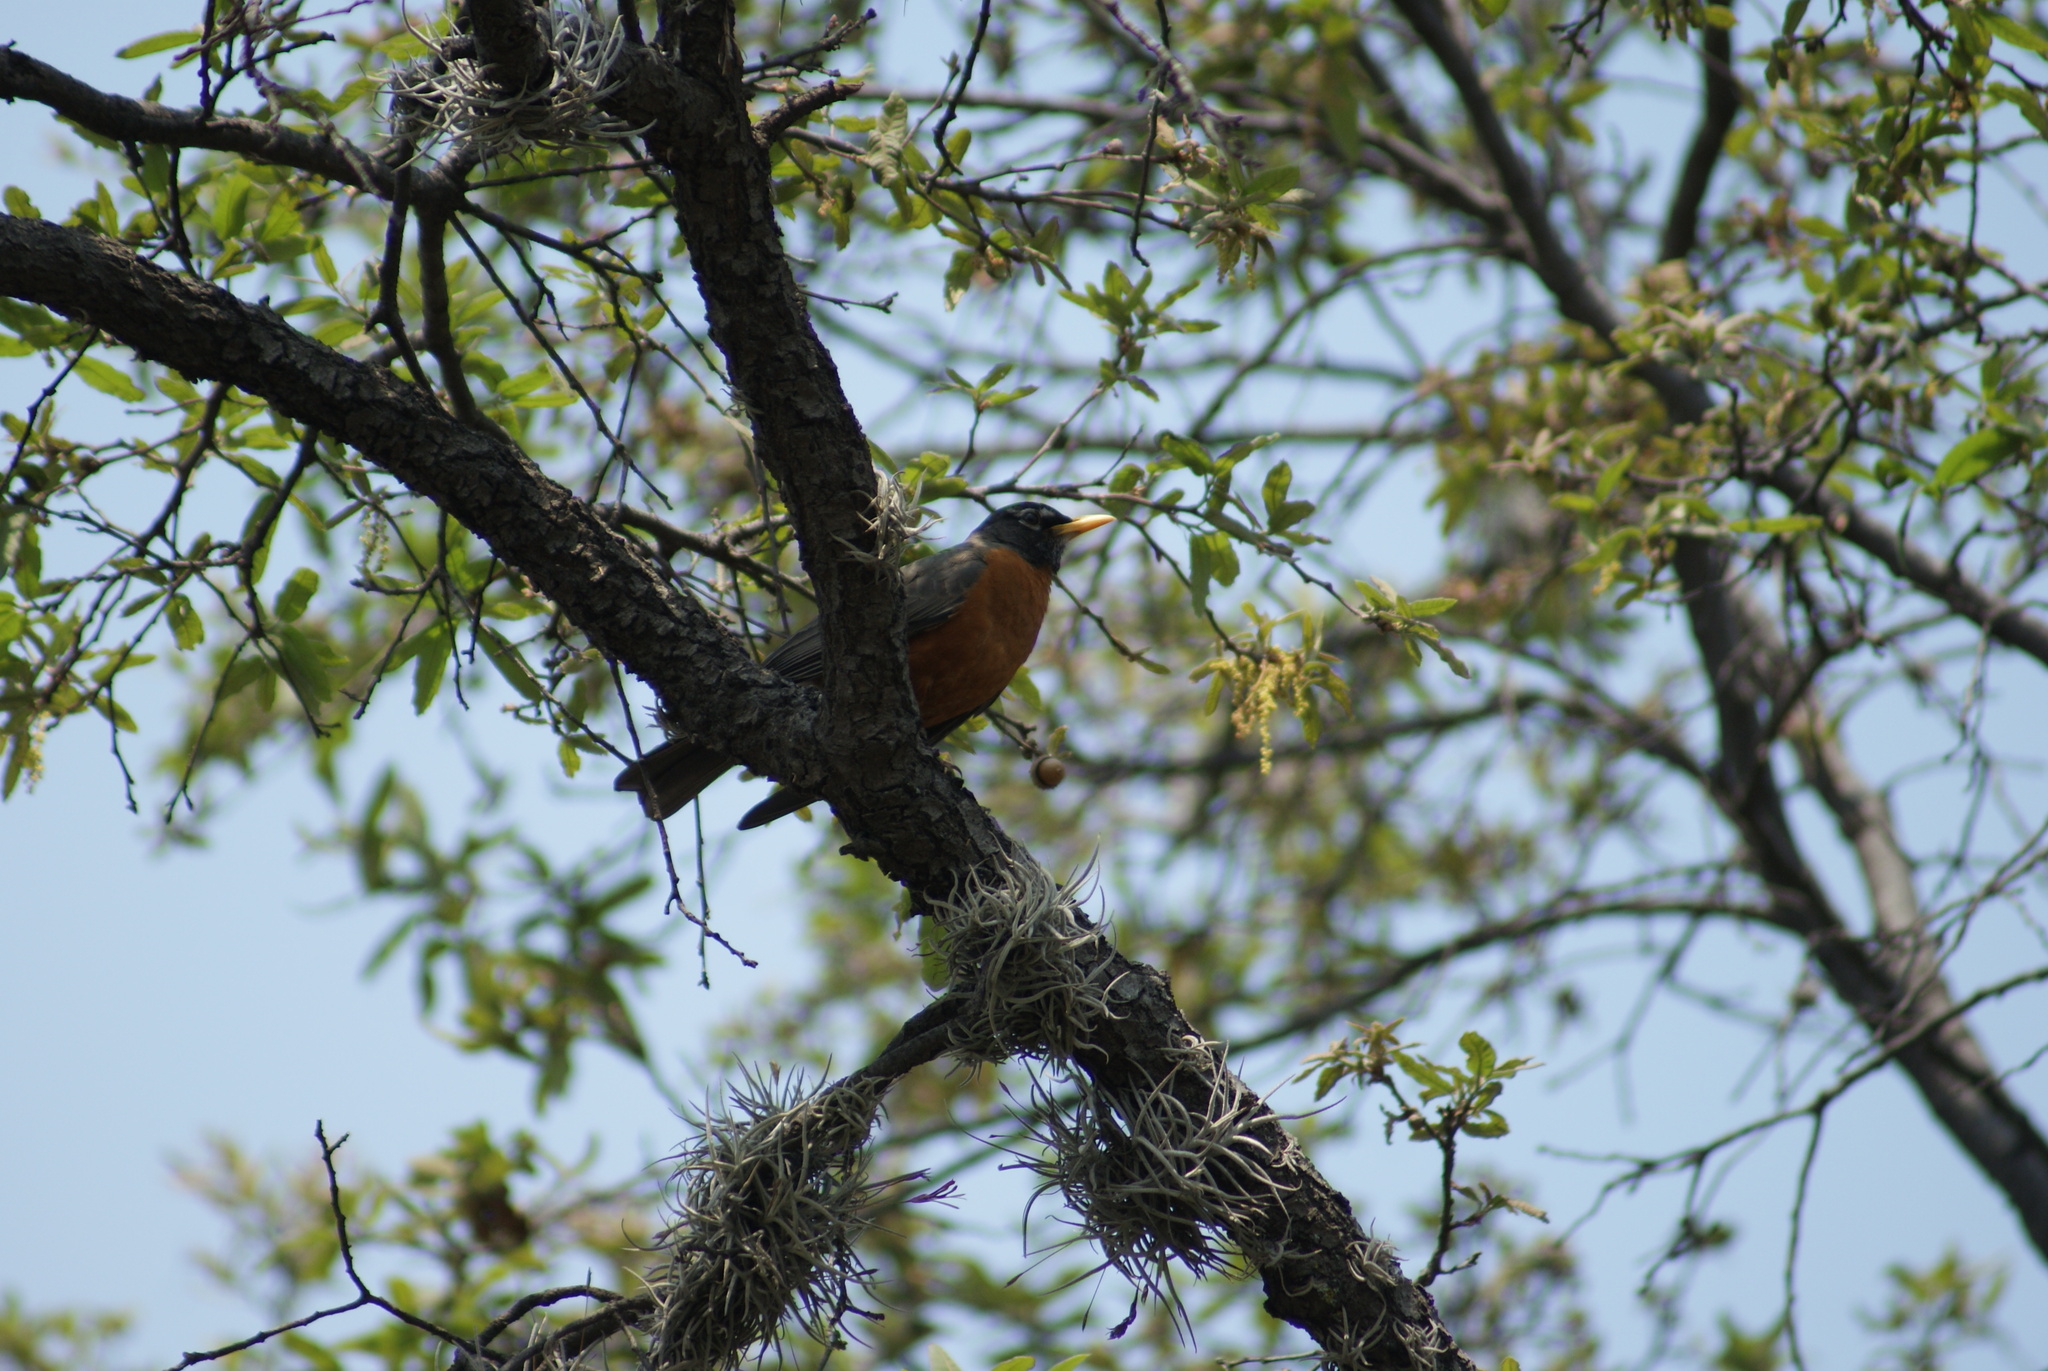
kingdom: Animalia
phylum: Chordata
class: Aves
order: Passeriformes
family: Turdidae
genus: Turdus
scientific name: Turdus migratorius
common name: American robin
